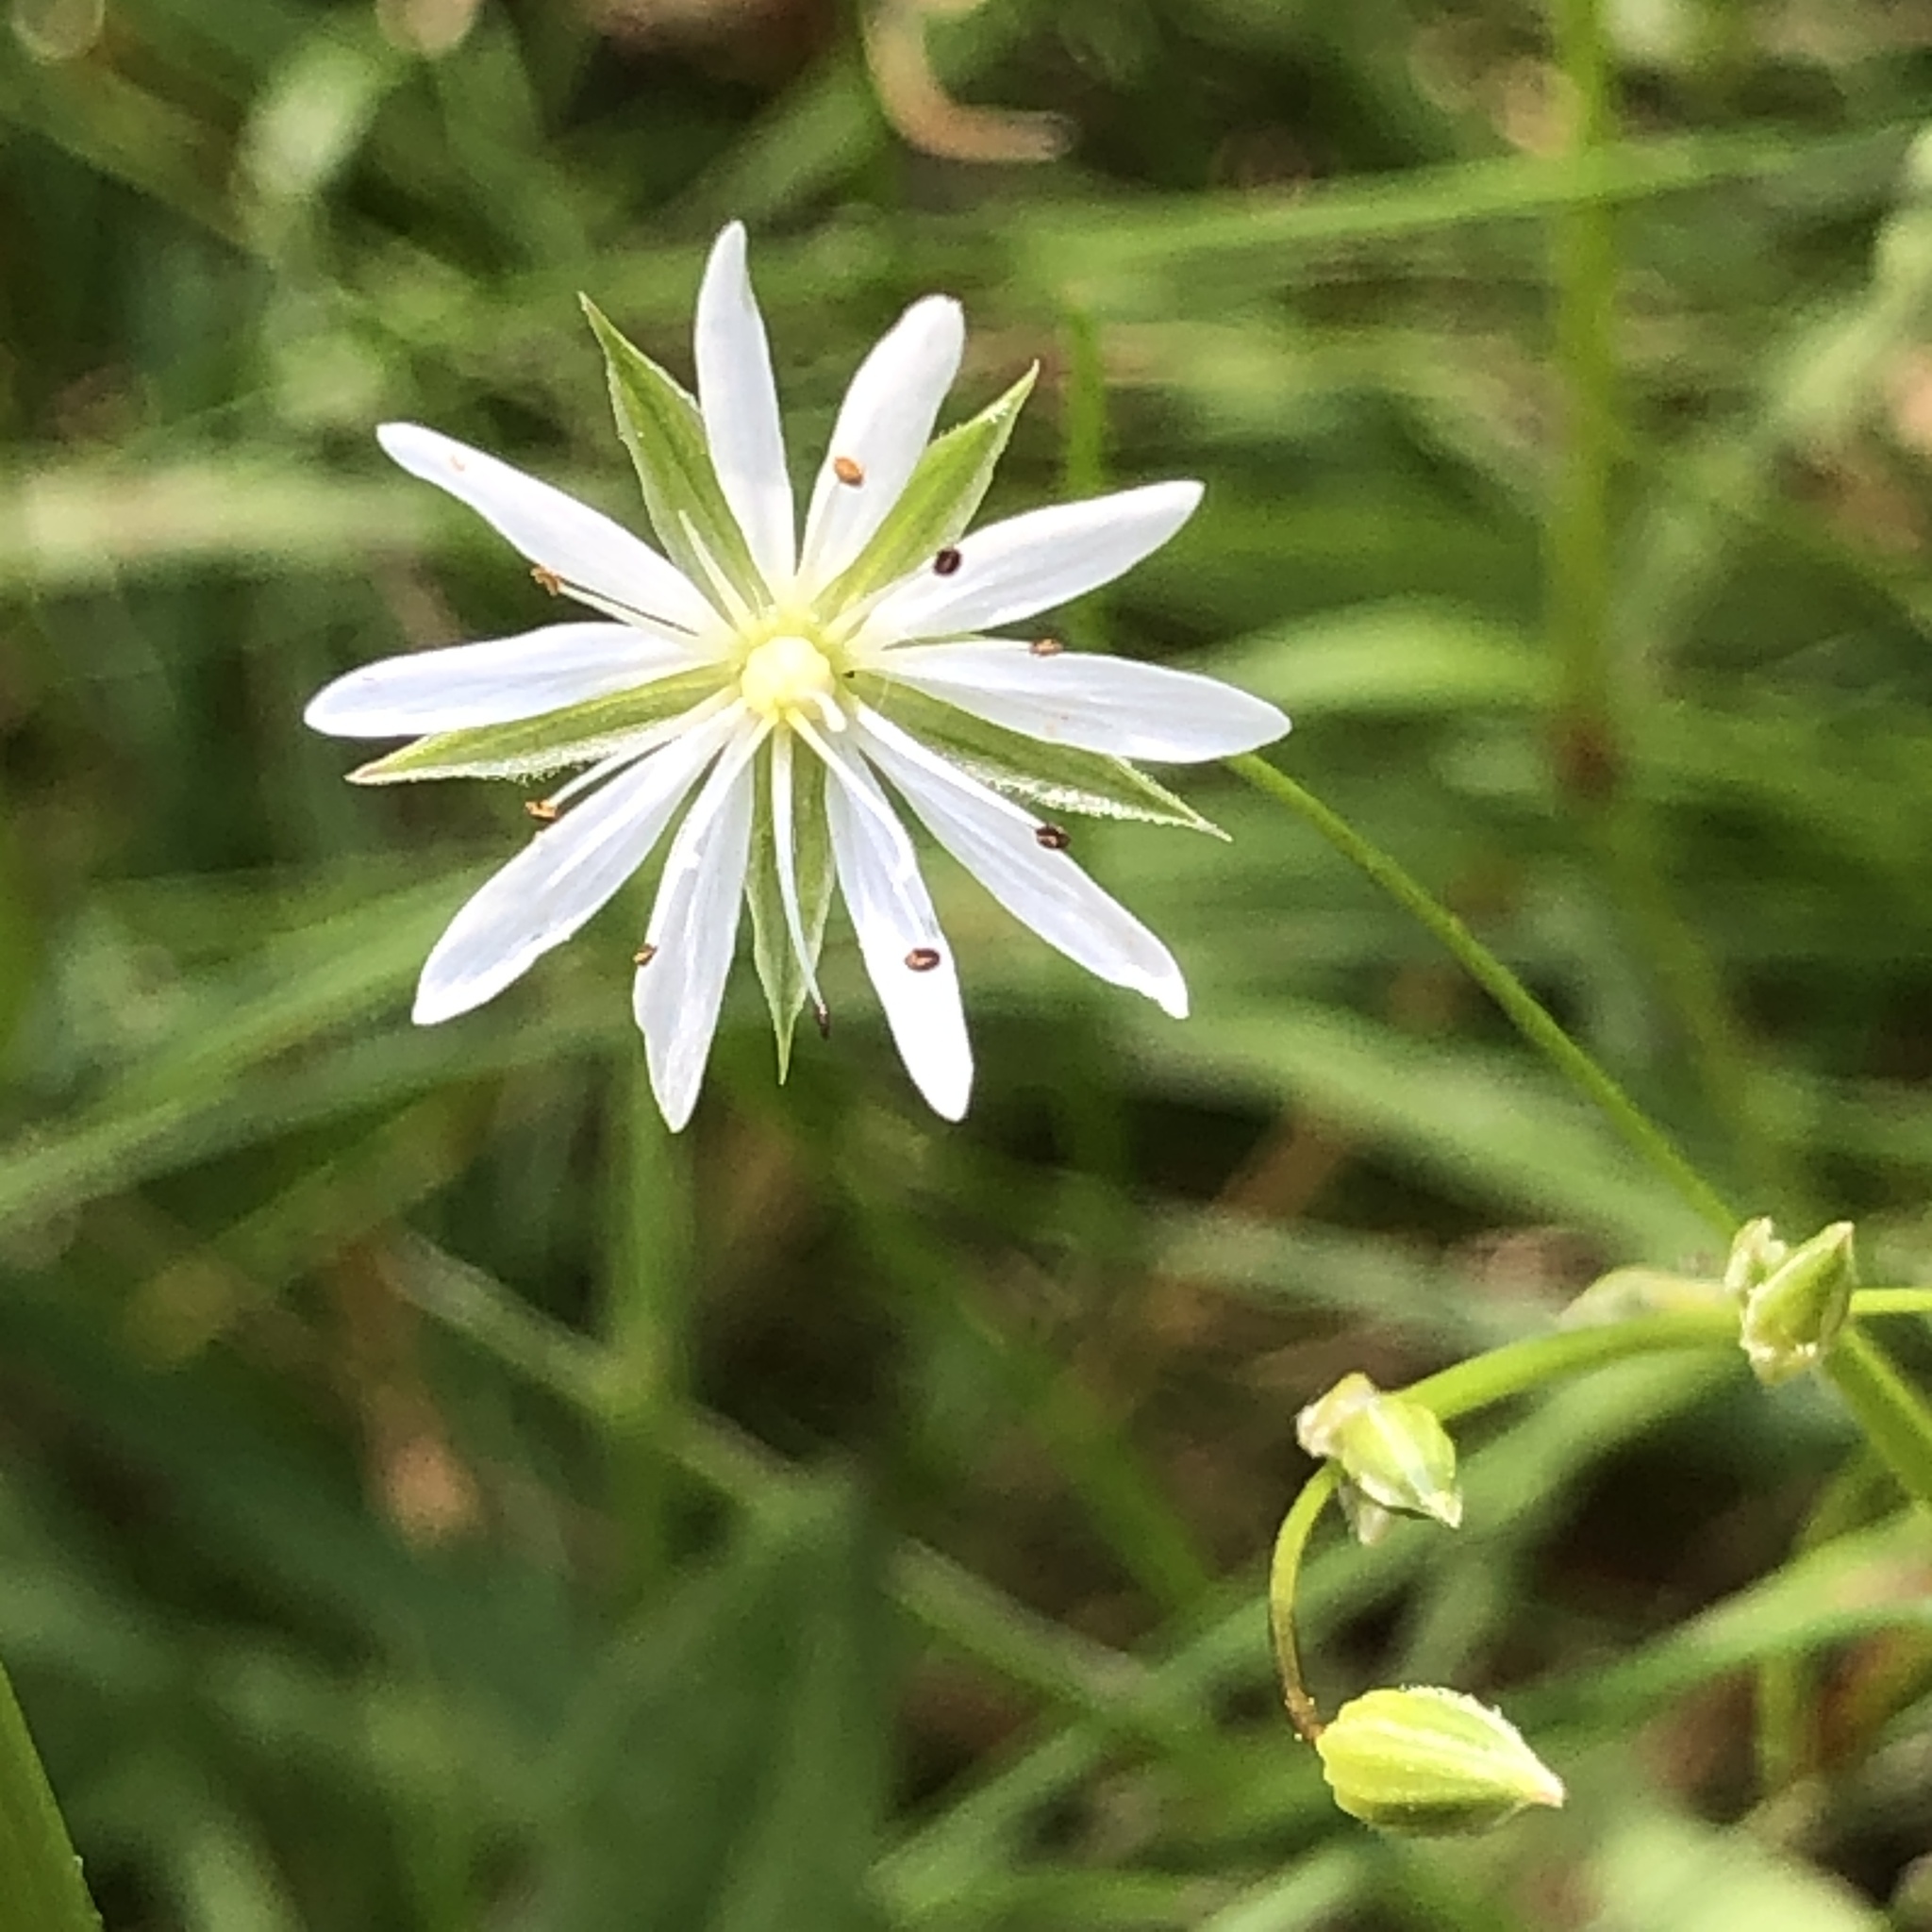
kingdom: Plantae
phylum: Tracheophyta
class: Magnoliopsida
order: Caryophyllales
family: Caryophyllaceae
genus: Stellaria
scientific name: Stellaria graminea
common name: Grass-like starwort
